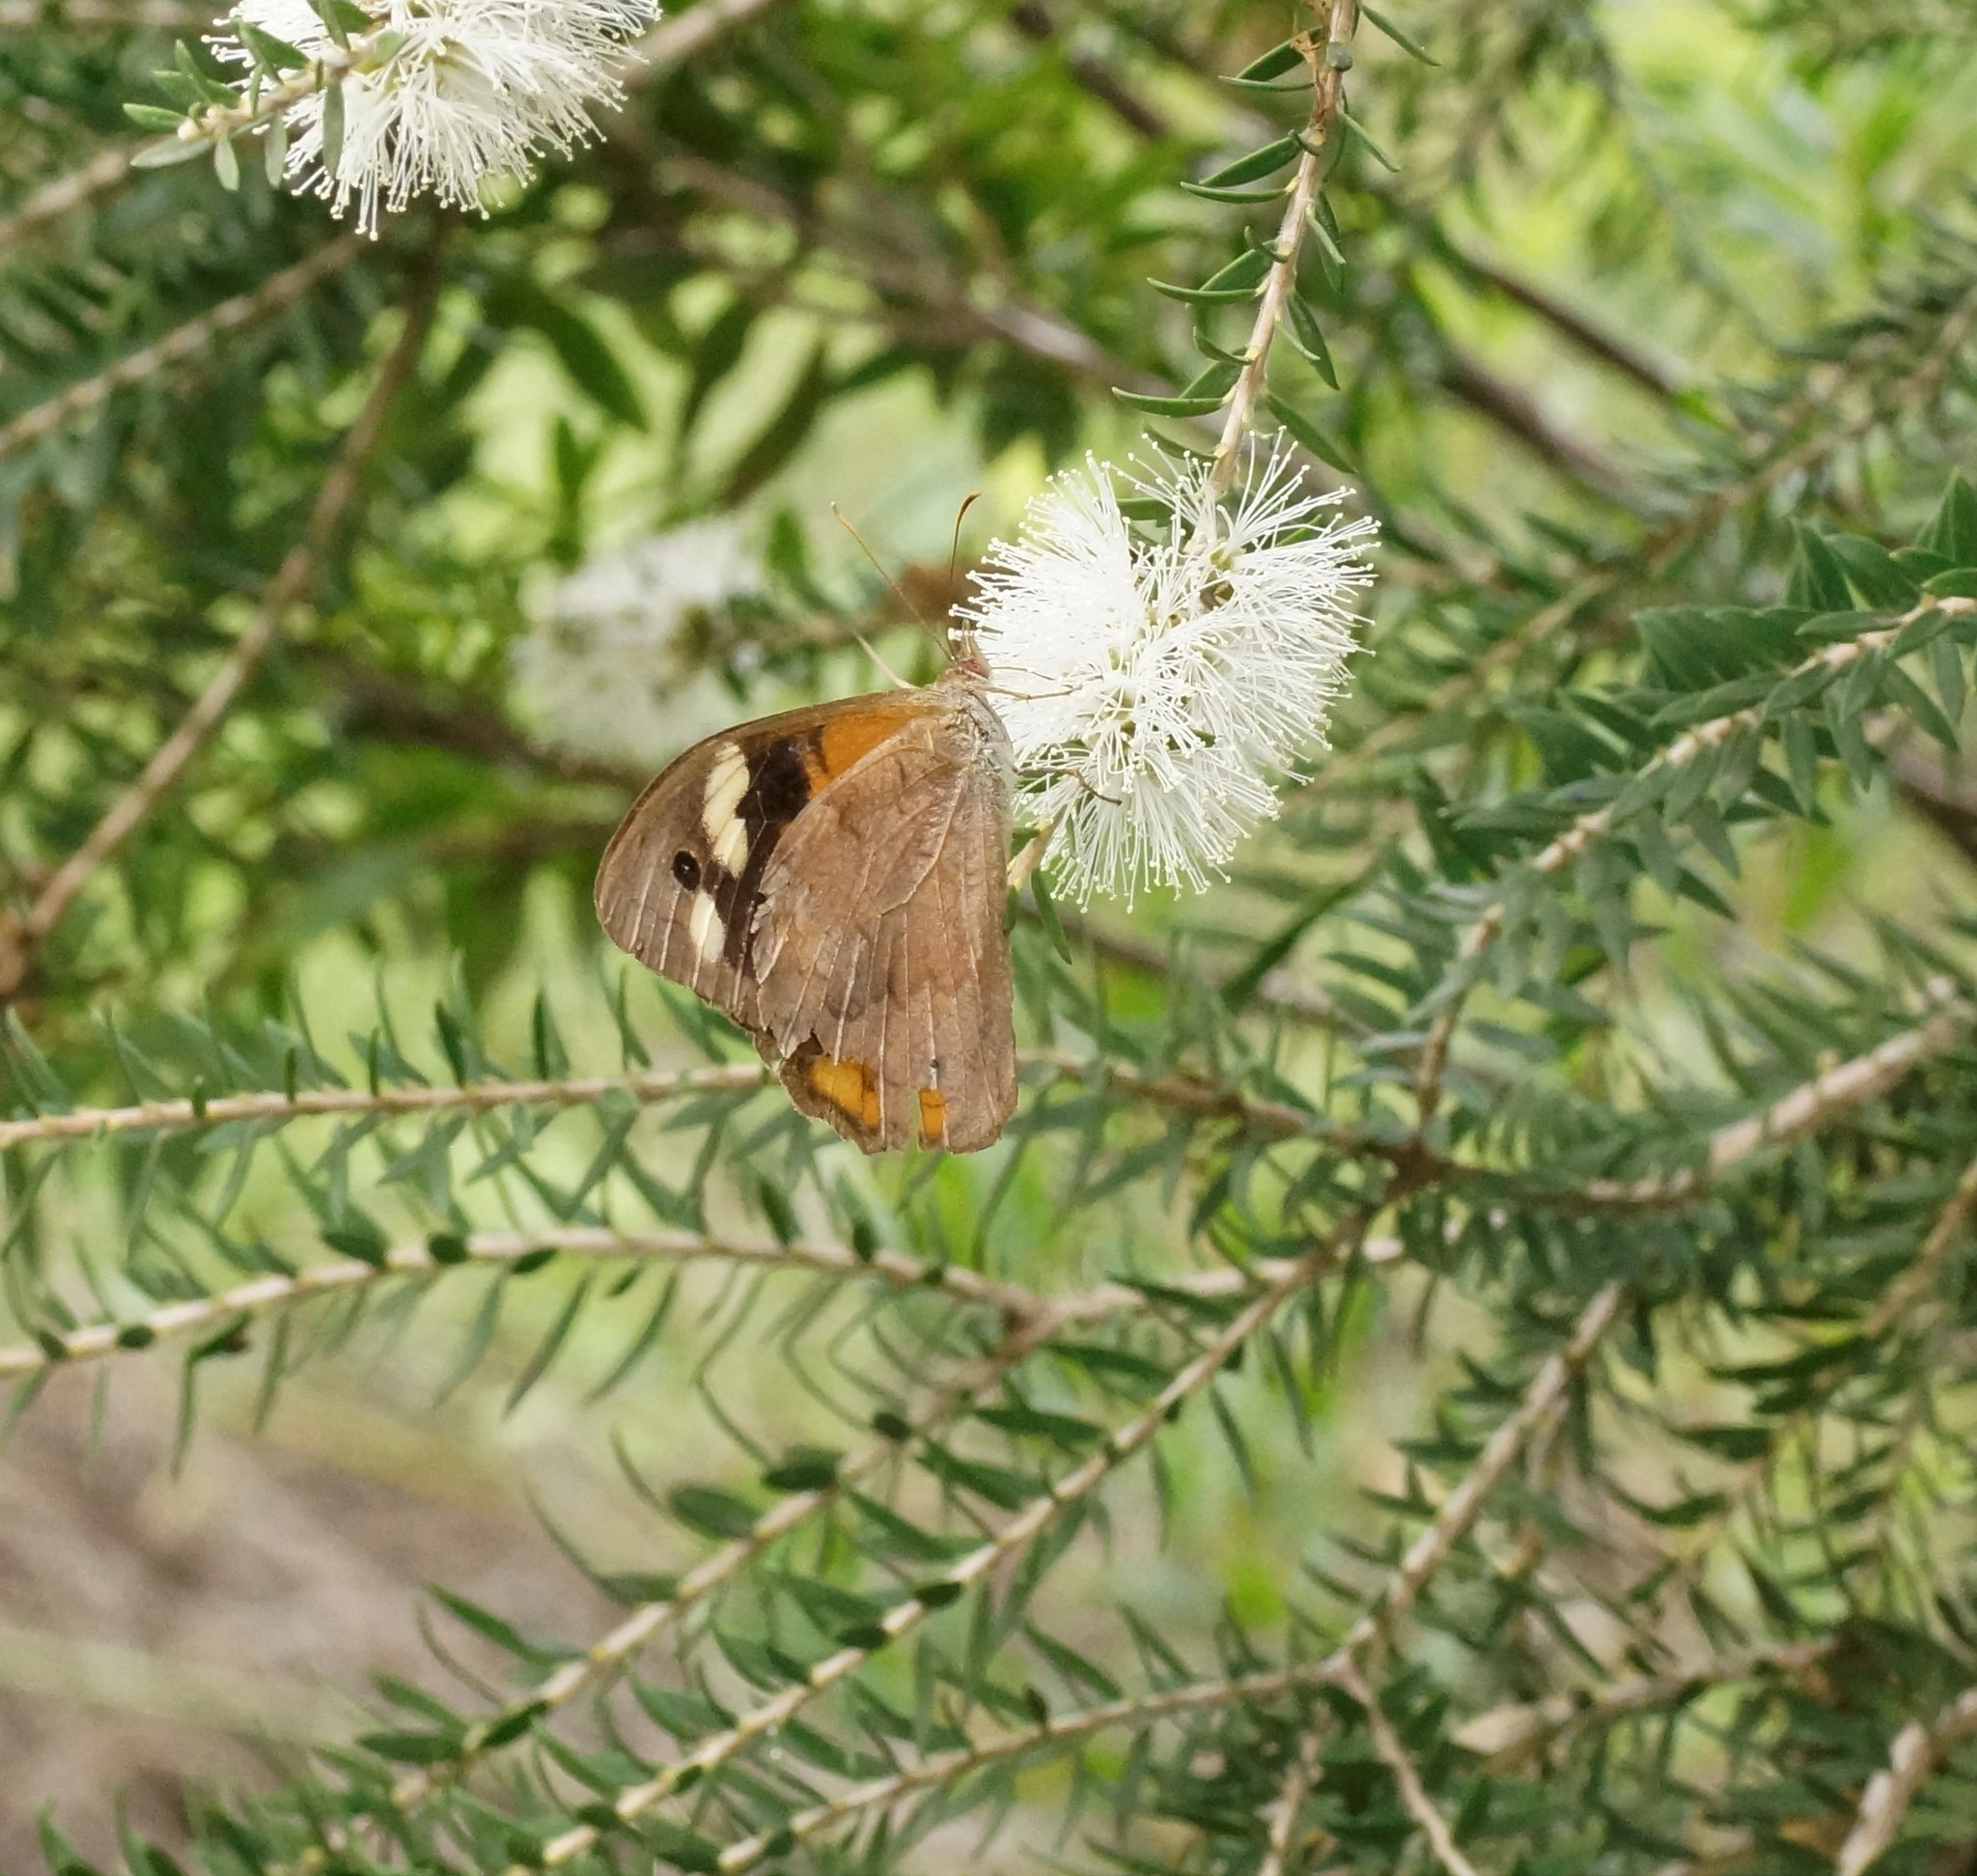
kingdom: Animalia
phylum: Arthropoda
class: Insecta
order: Lepidoptera
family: Nymphalidae
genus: Heteronympha
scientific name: Heteronympha merope
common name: Common brown
